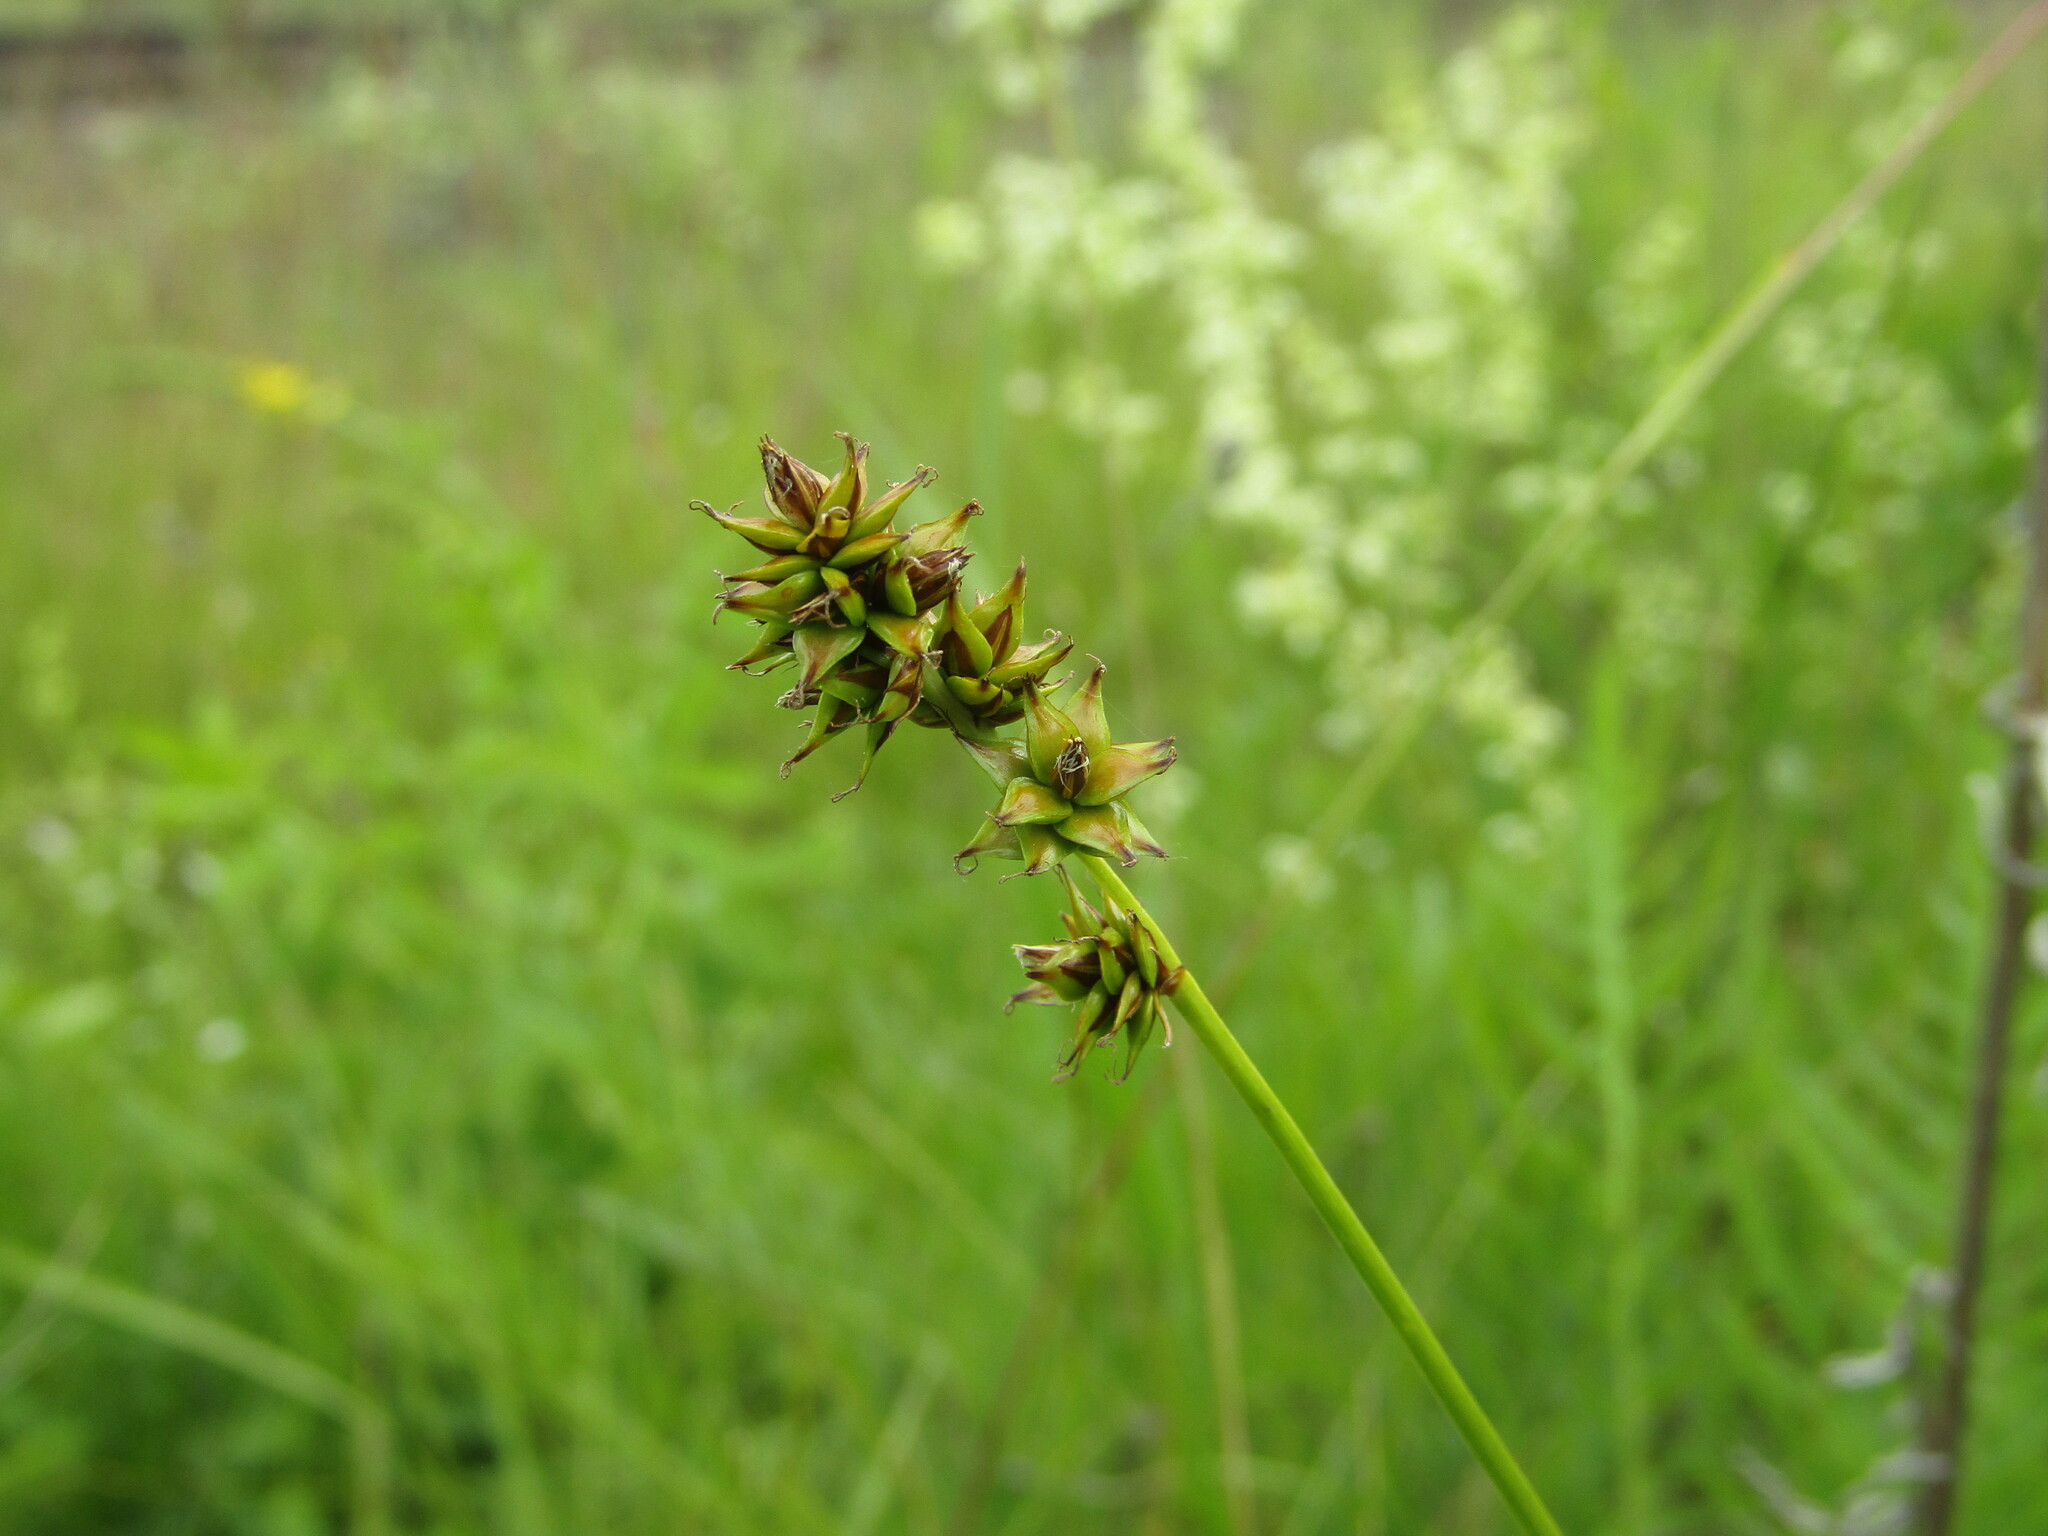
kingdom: Plantae
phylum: Tracheophyta
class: Liliopsida
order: Poales
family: Cyperaceae
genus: Carex
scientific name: Carex muricata
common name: Rough sedge
